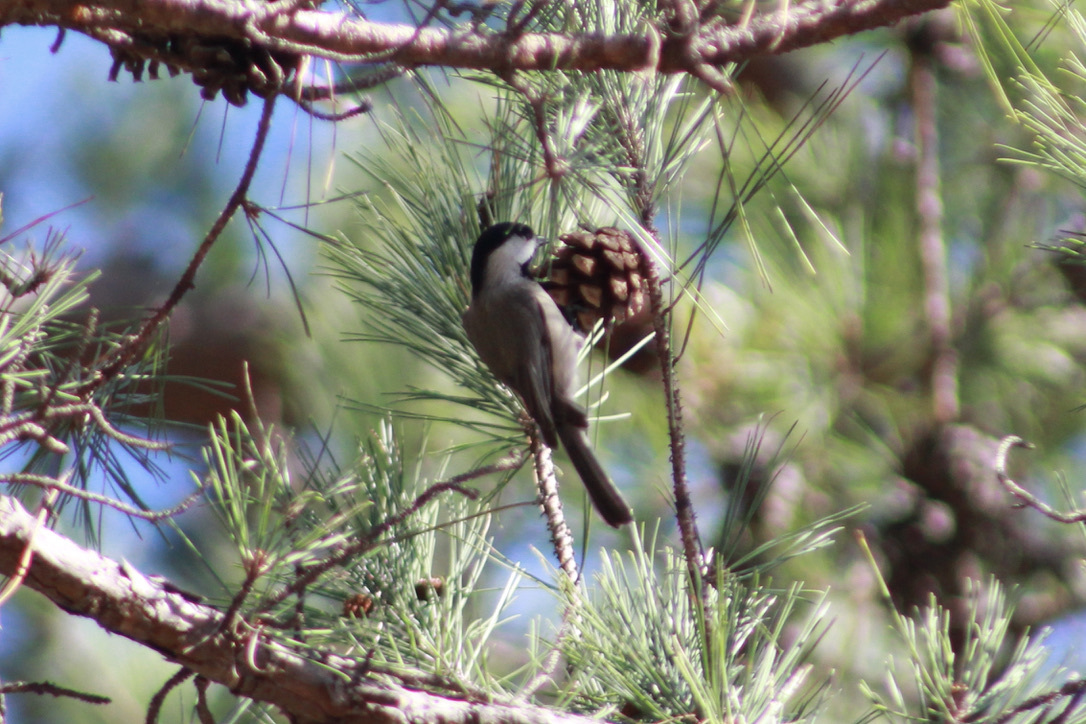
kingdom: Animalia
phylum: Chordata
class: Aves
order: Passeriformes
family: Paridae
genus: Poecile
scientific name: Poecile carolinensis
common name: Carolina chickadee
